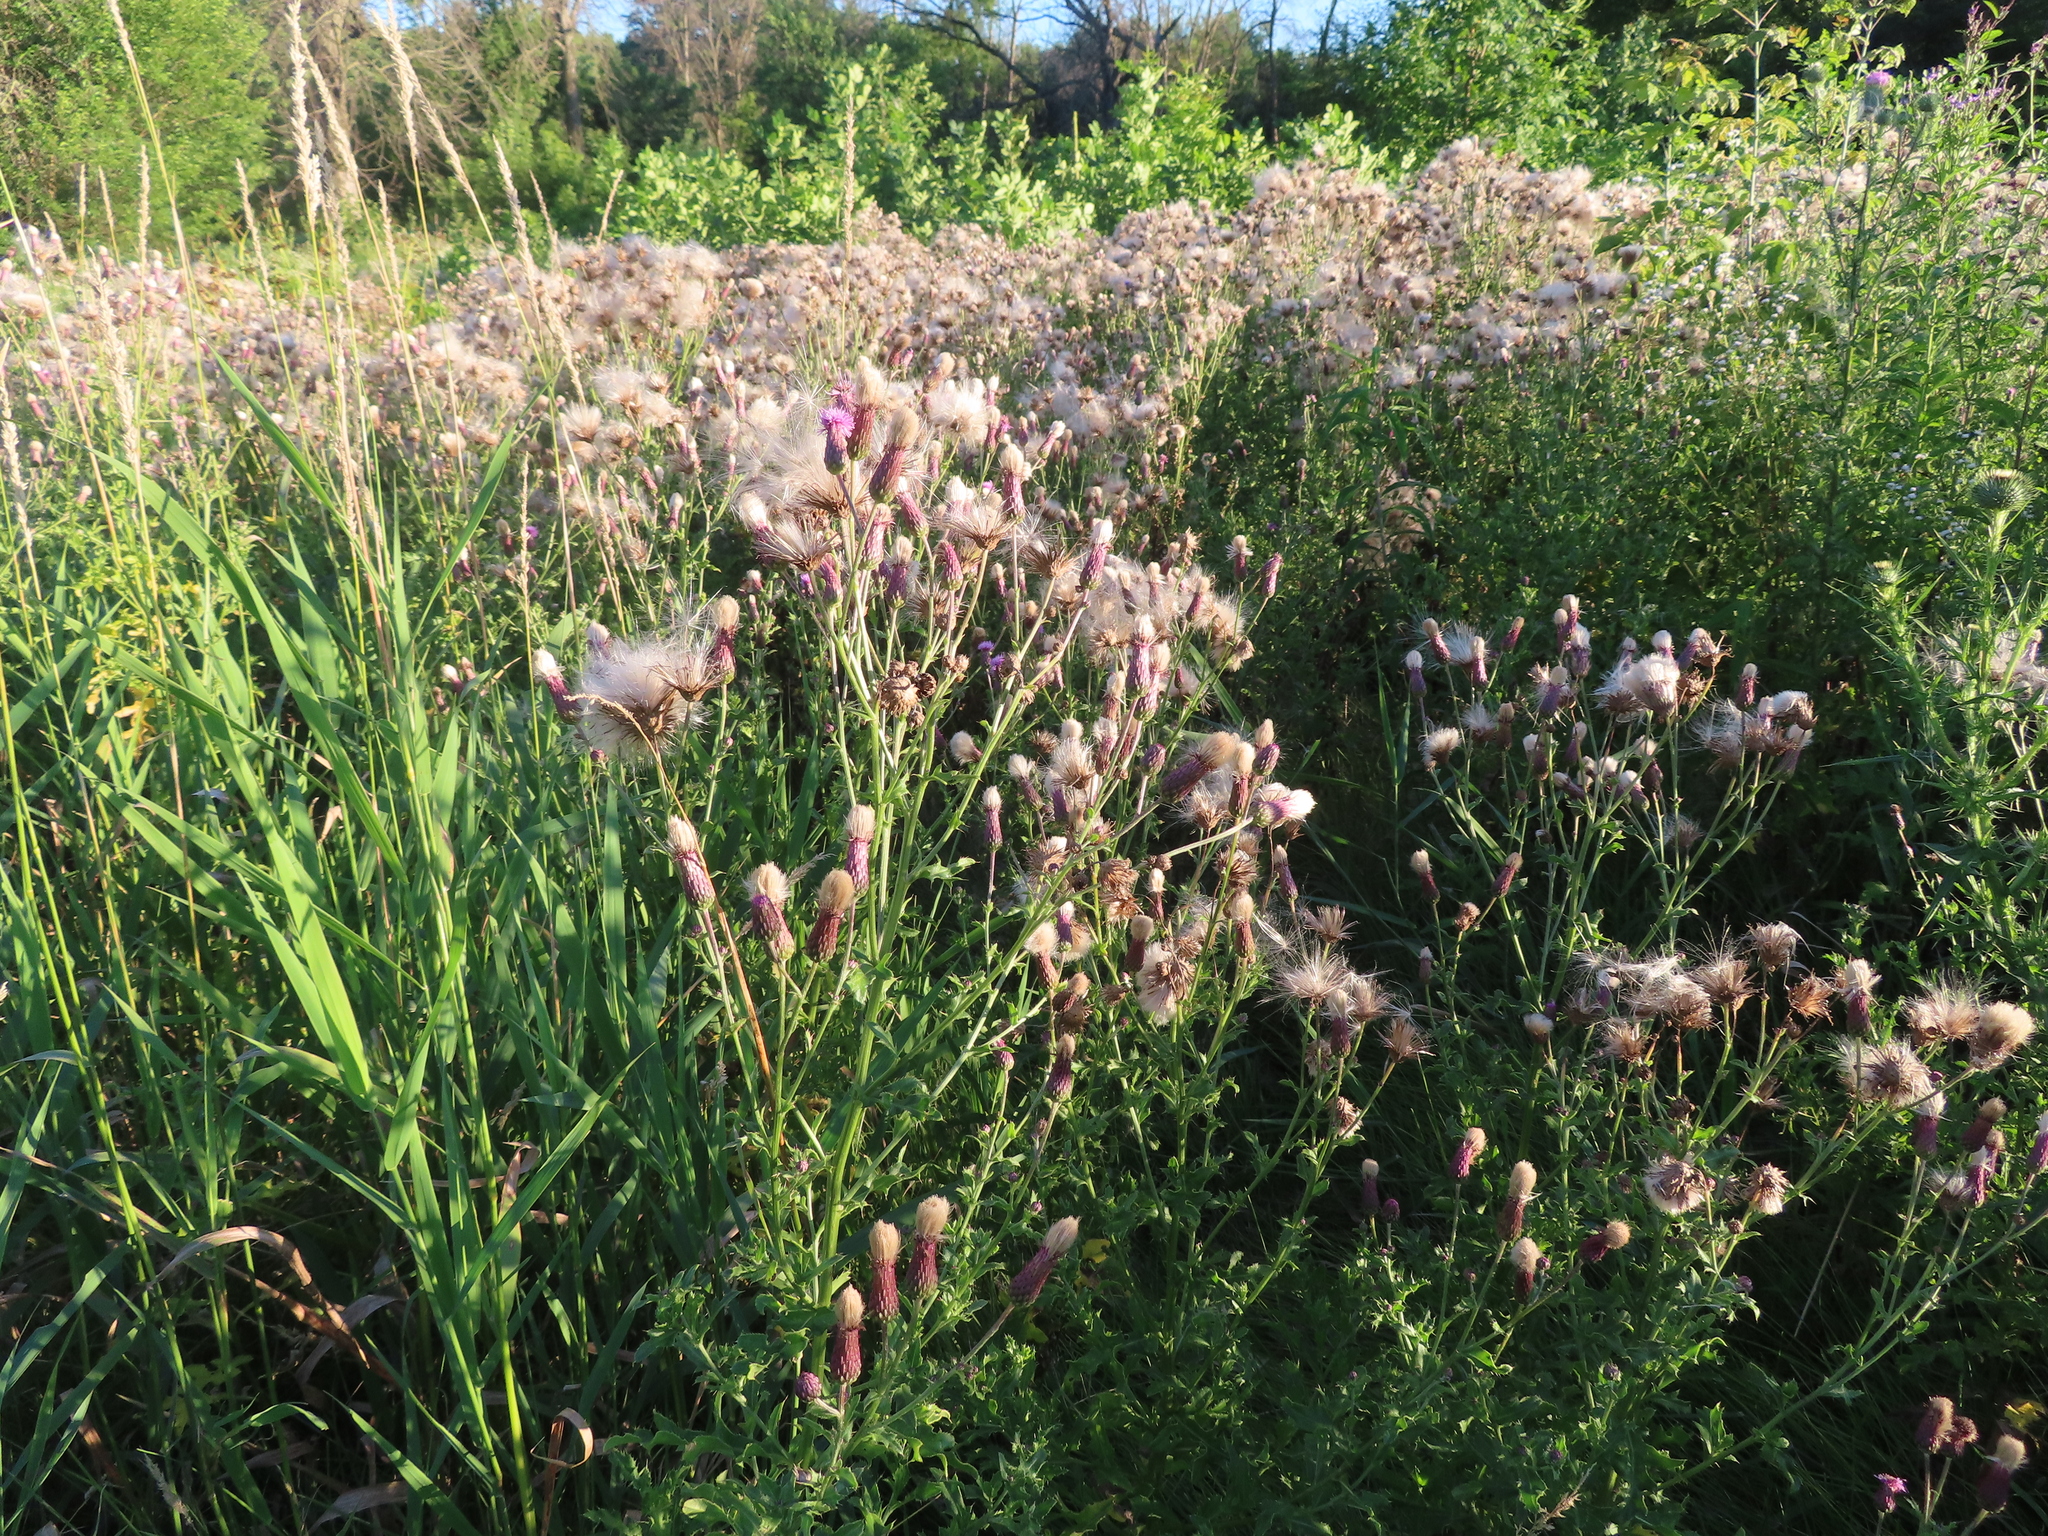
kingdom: Plantae
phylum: Tracheophyta
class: Magnoliopsida
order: Asterales
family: Asteraceae
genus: Cirsium
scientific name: Cirsium arvense
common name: Creeping thistle
